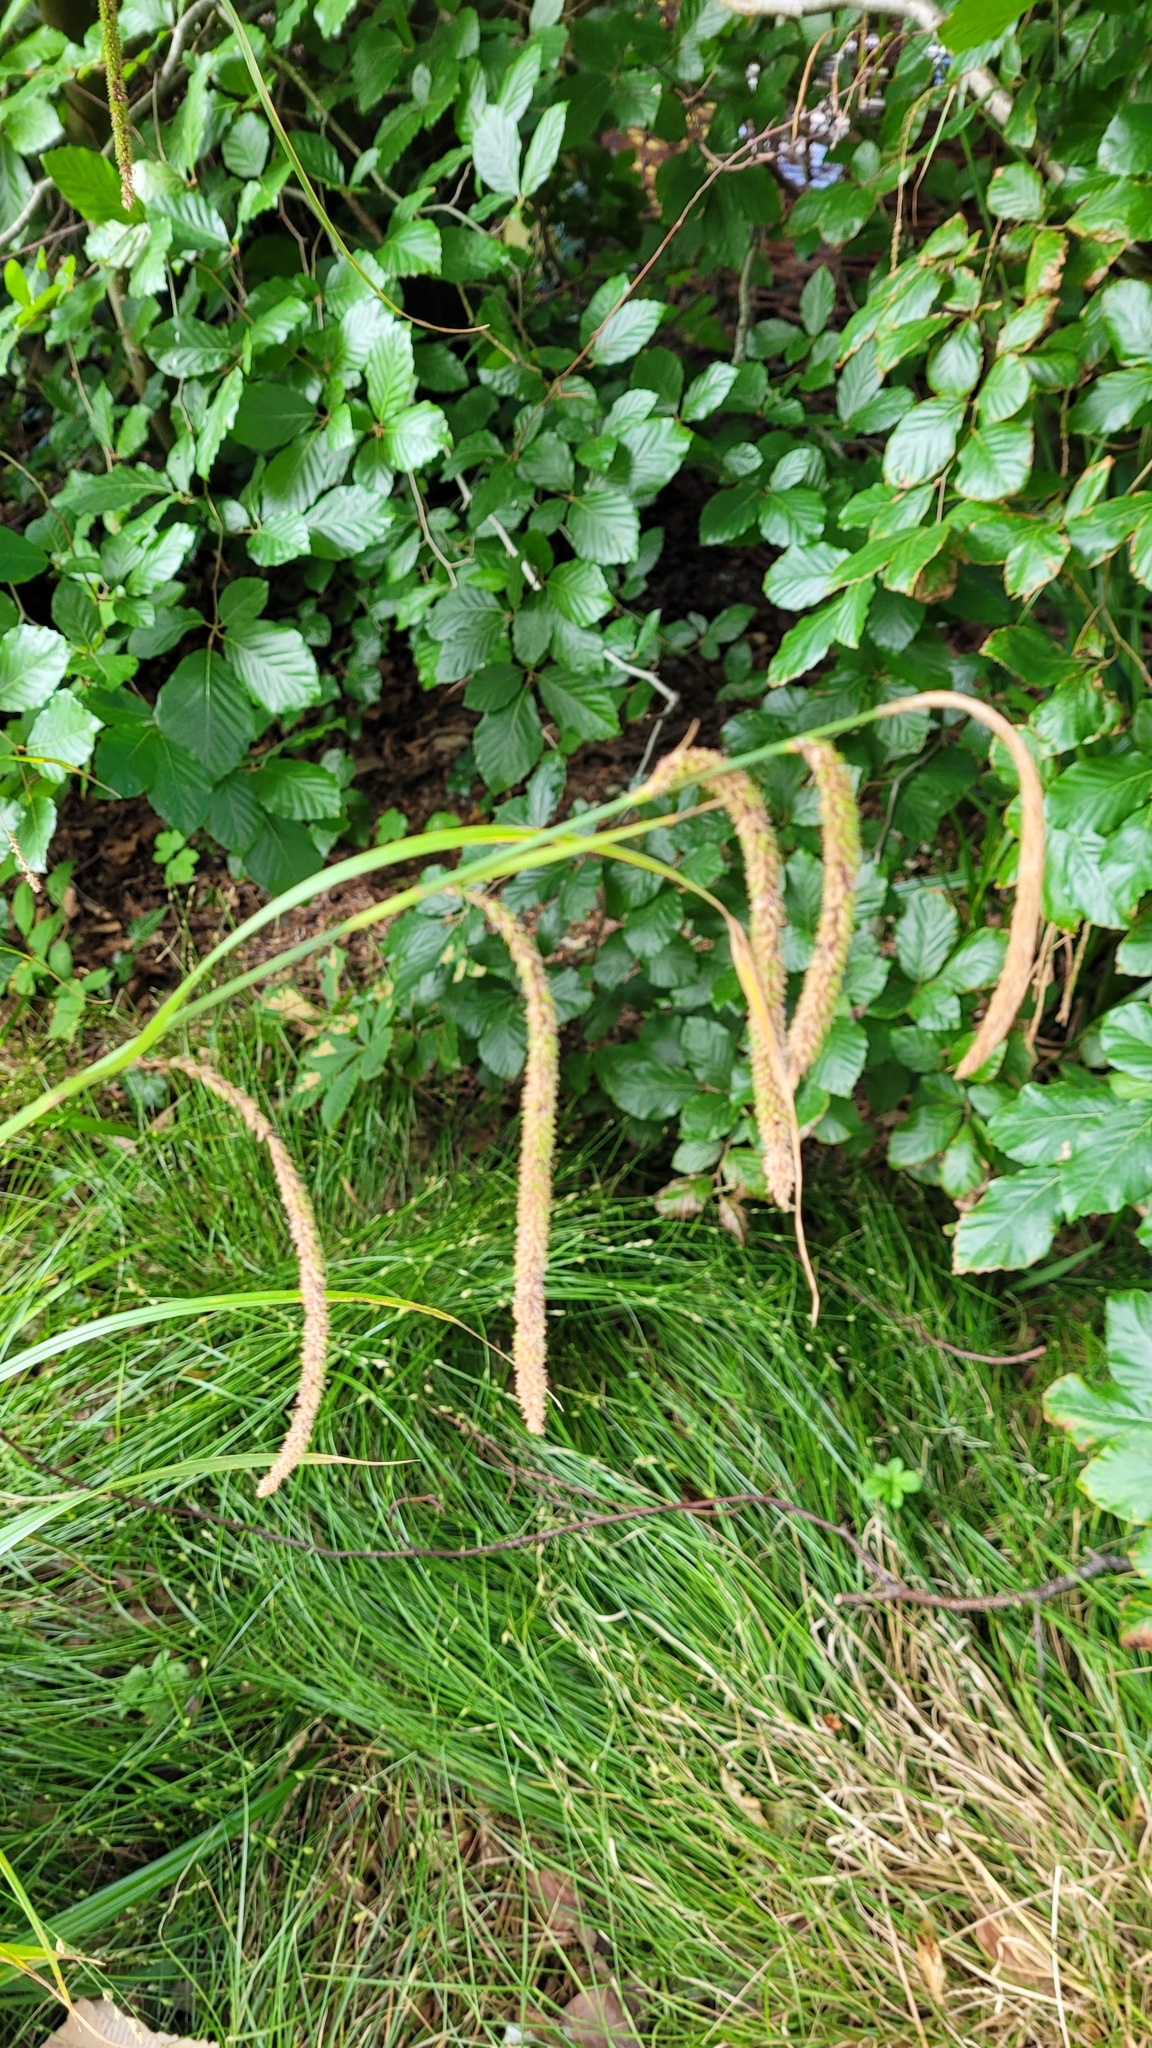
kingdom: Plantae
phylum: Tracheophyta
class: Liliopsida
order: Poales
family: Cyperaceae
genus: Carex
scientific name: Carex pendula
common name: Pendulous sedge
